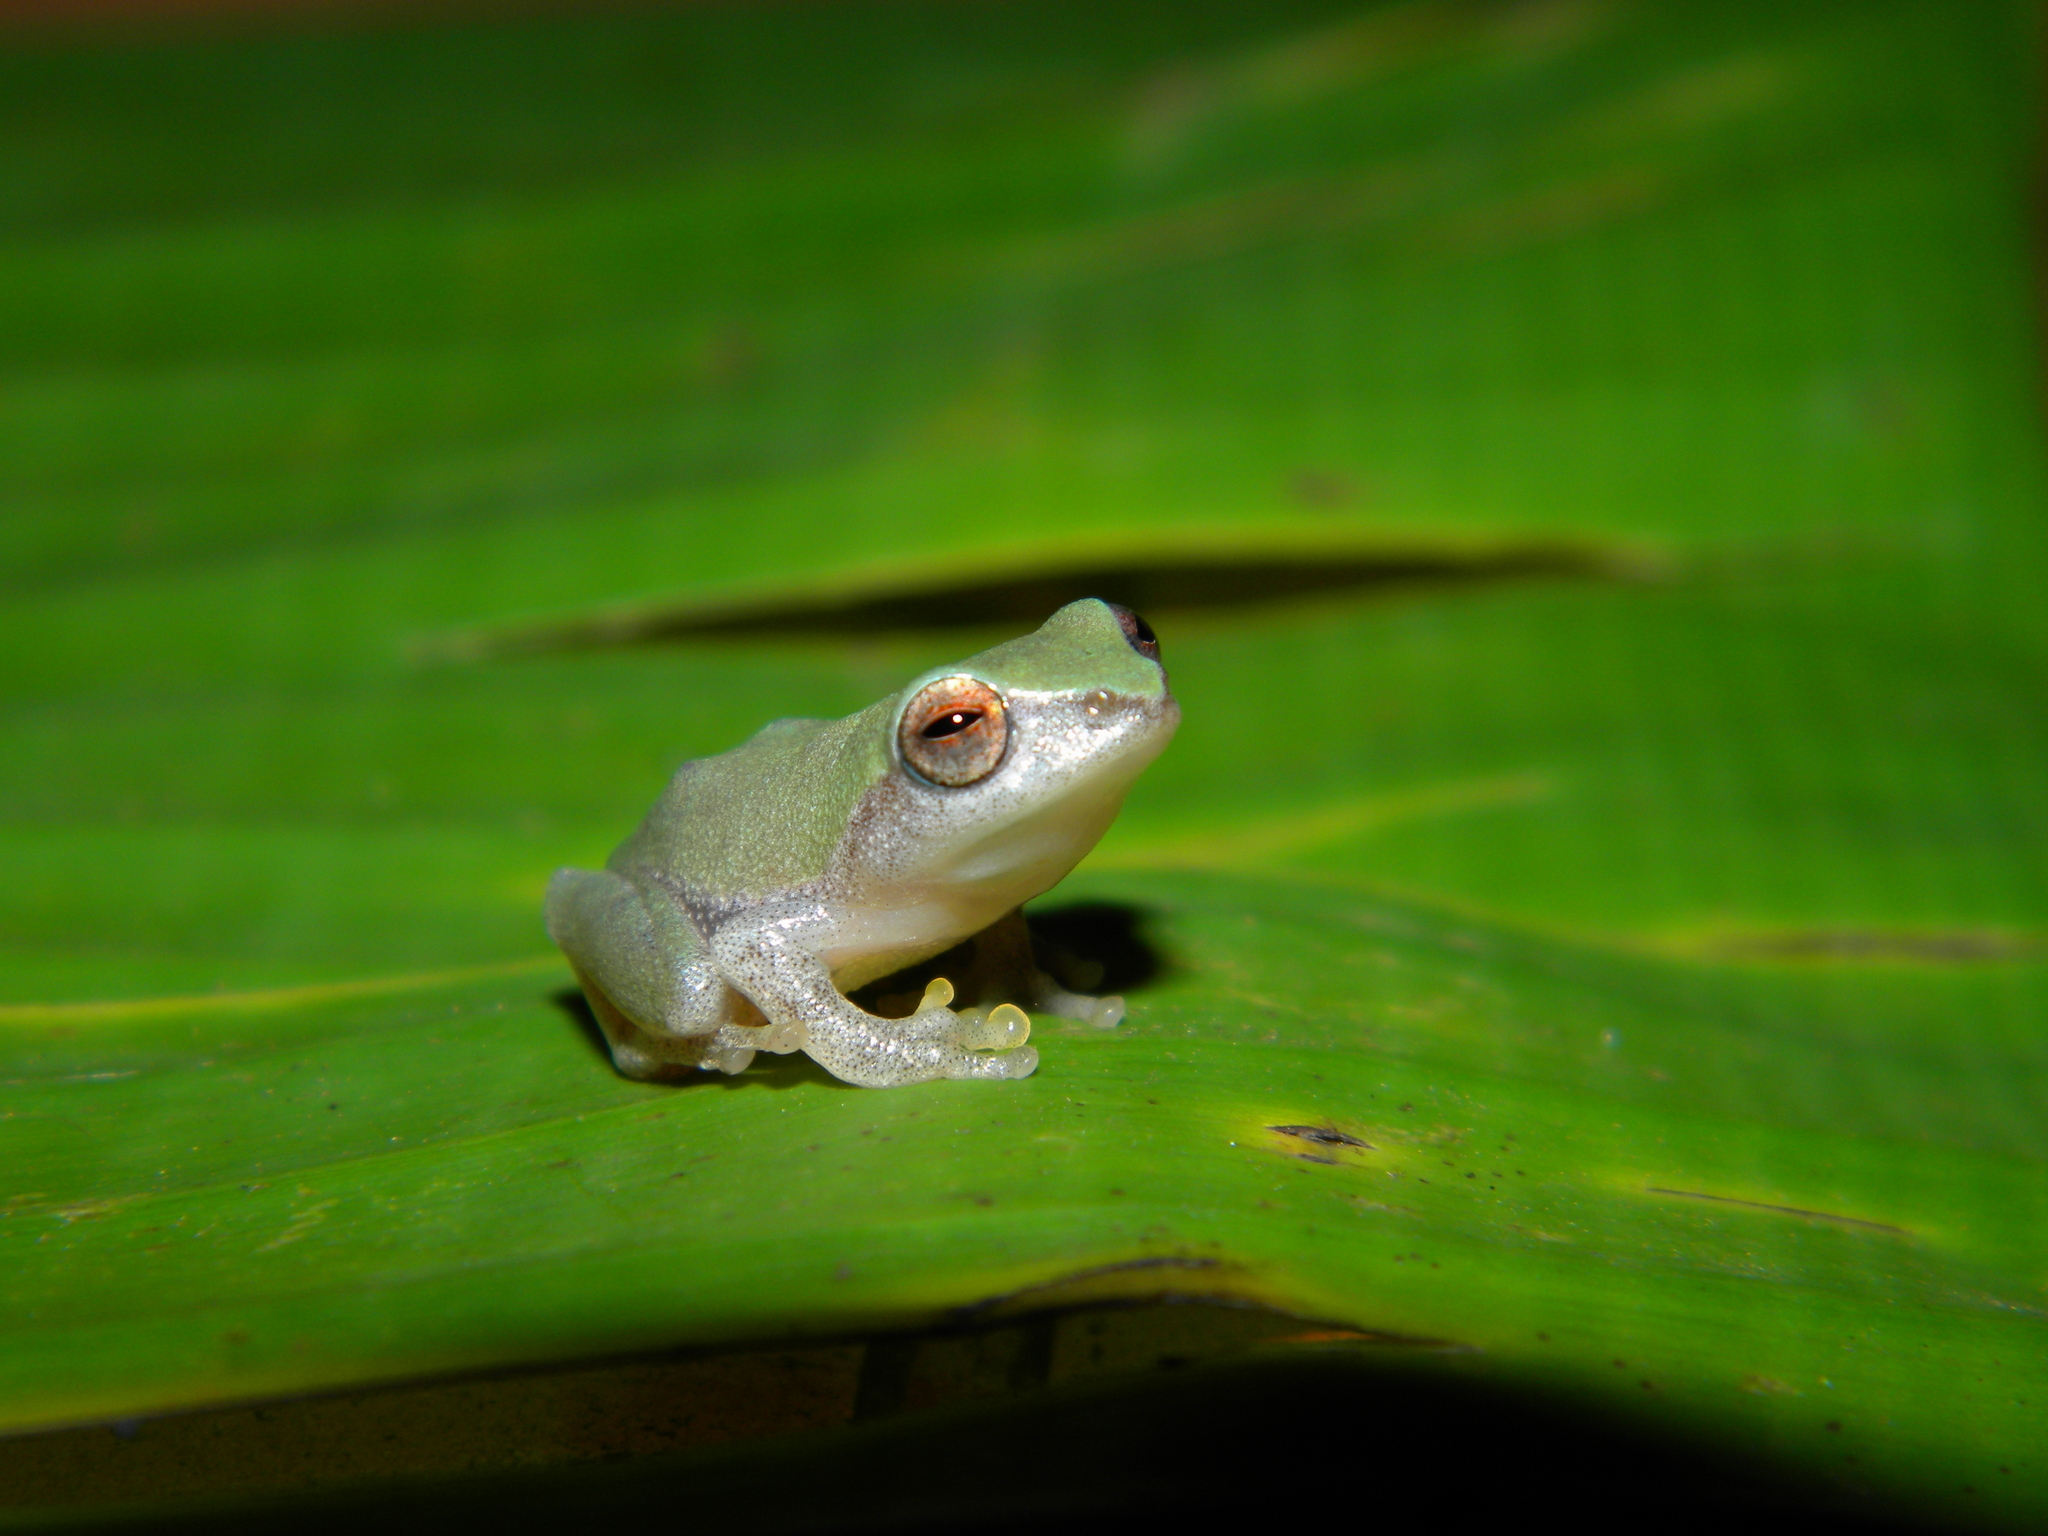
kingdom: Animalia
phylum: Chordata
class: Amphibia
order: Anura
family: Rhacophoridae
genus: Raorchestes
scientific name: Raorchestes akroparallagi
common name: Variable bush frog
